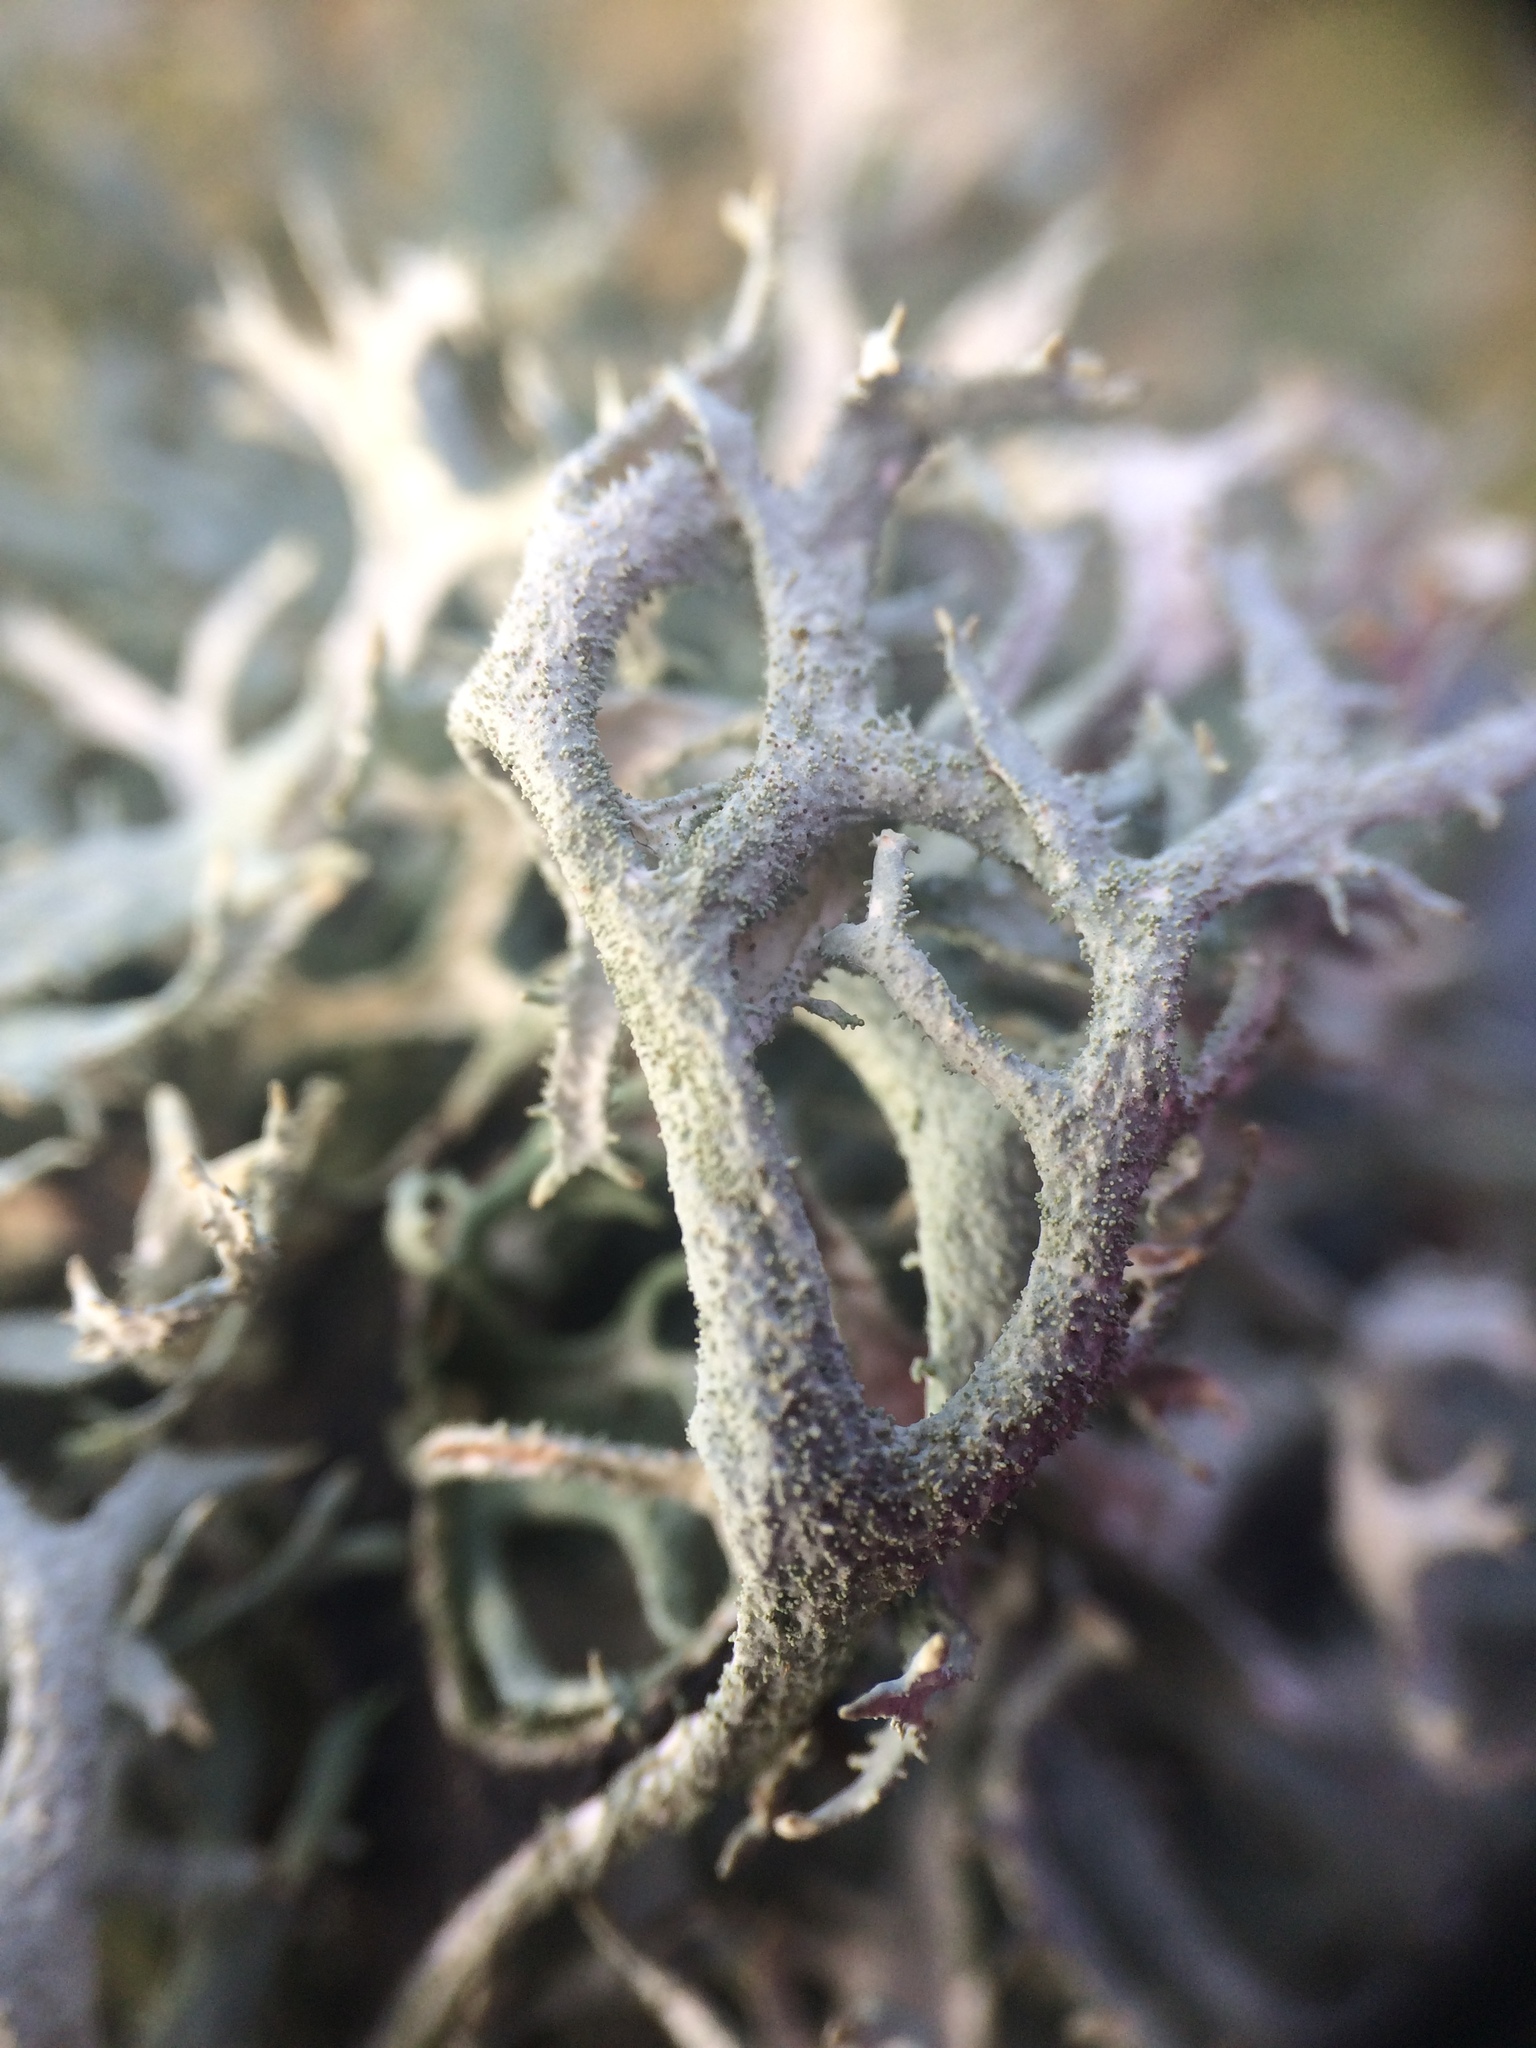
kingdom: Fungi
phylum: Ascomycota
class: Lecanoromycetes
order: Lecanorales
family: Parmeliaceae
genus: Pseudevernia
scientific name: Pseudevernia furfuracea
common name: Tree moss
